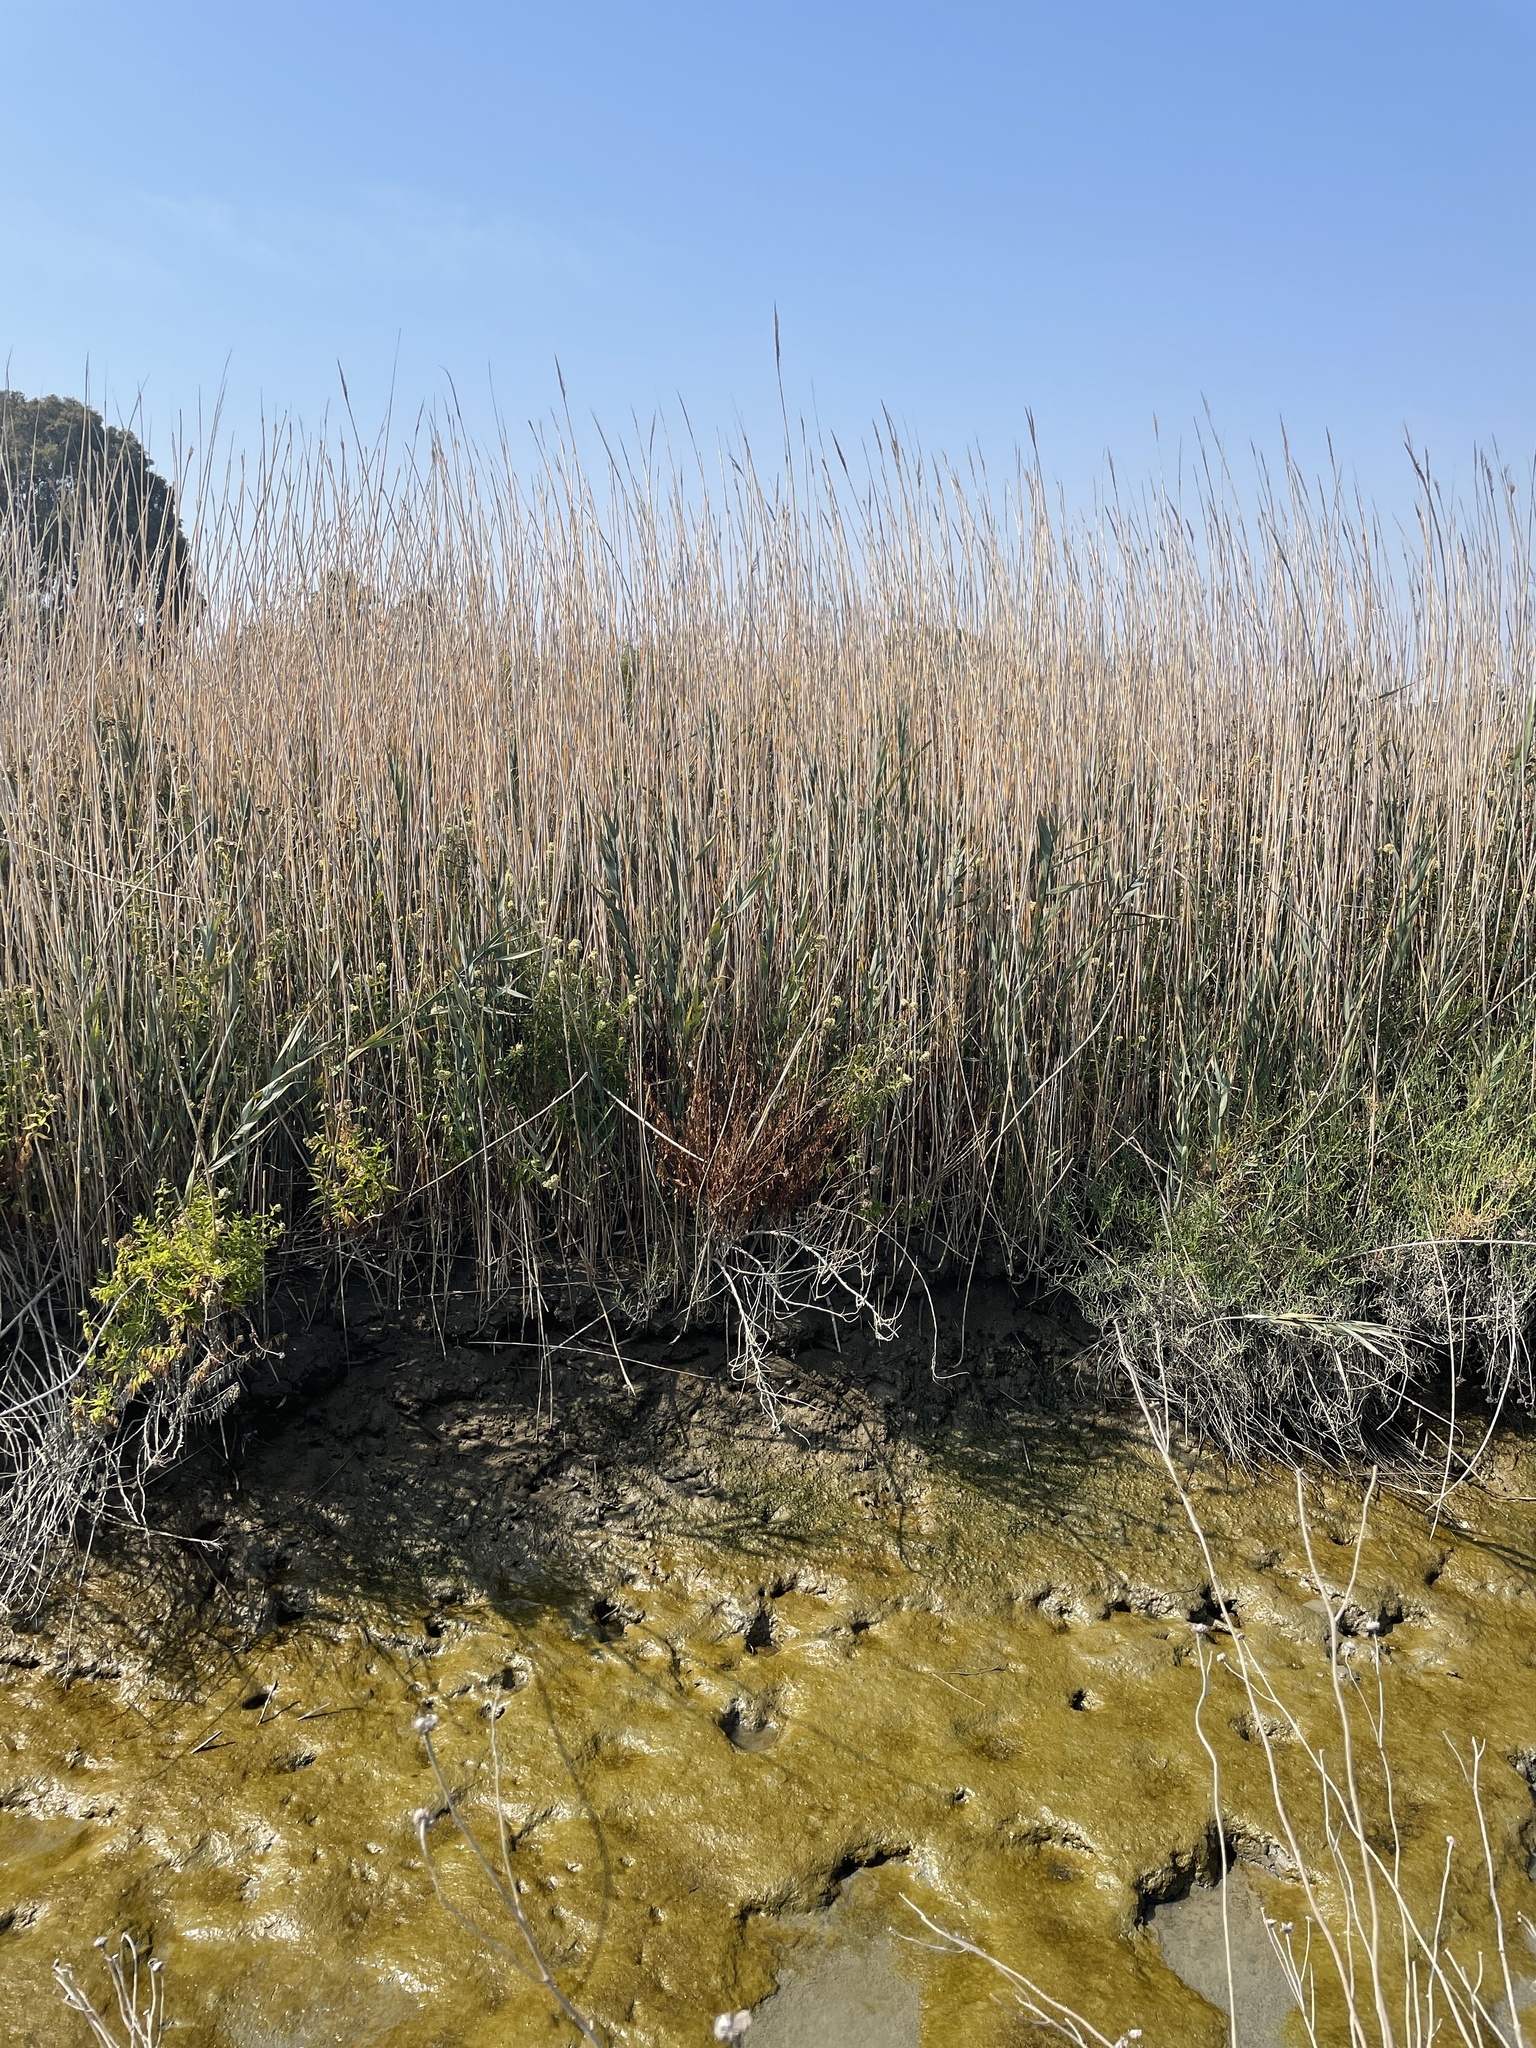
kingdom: Plantae
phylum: Tracheophyta
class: Liliopsida
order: Poales
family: Poaceae
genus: Phragmites
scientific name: Phragmites australis
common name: Common reed
